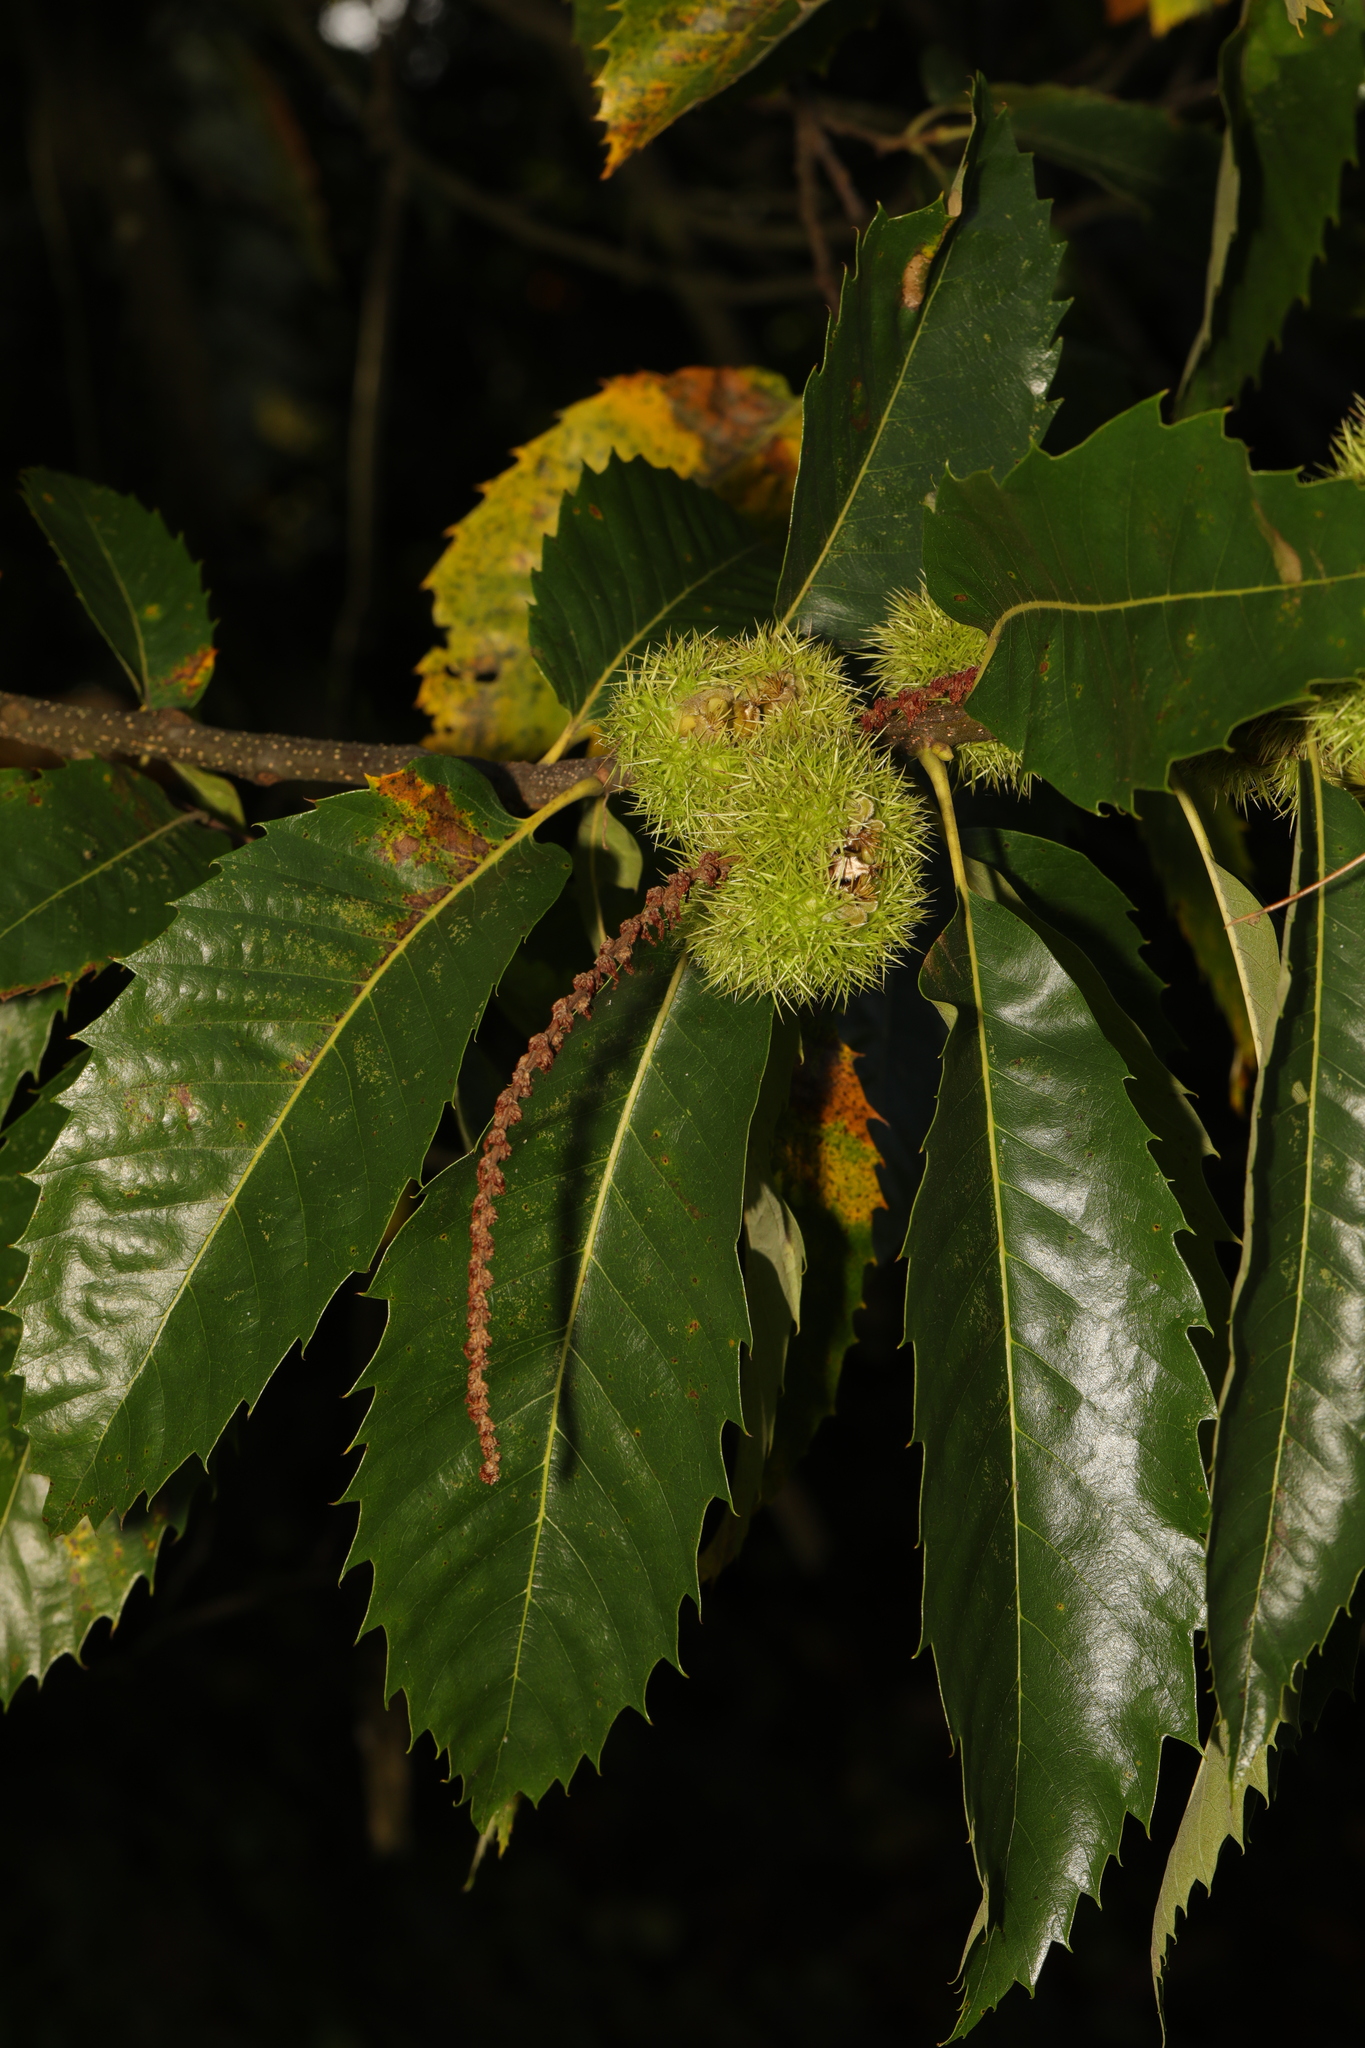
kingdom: Plantae
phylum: Tracheophyta
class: Magnoliopsida
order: Fagales
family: Fagaceae
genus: Castanea
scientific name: Castanea sativa
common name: Sweet chestnut
